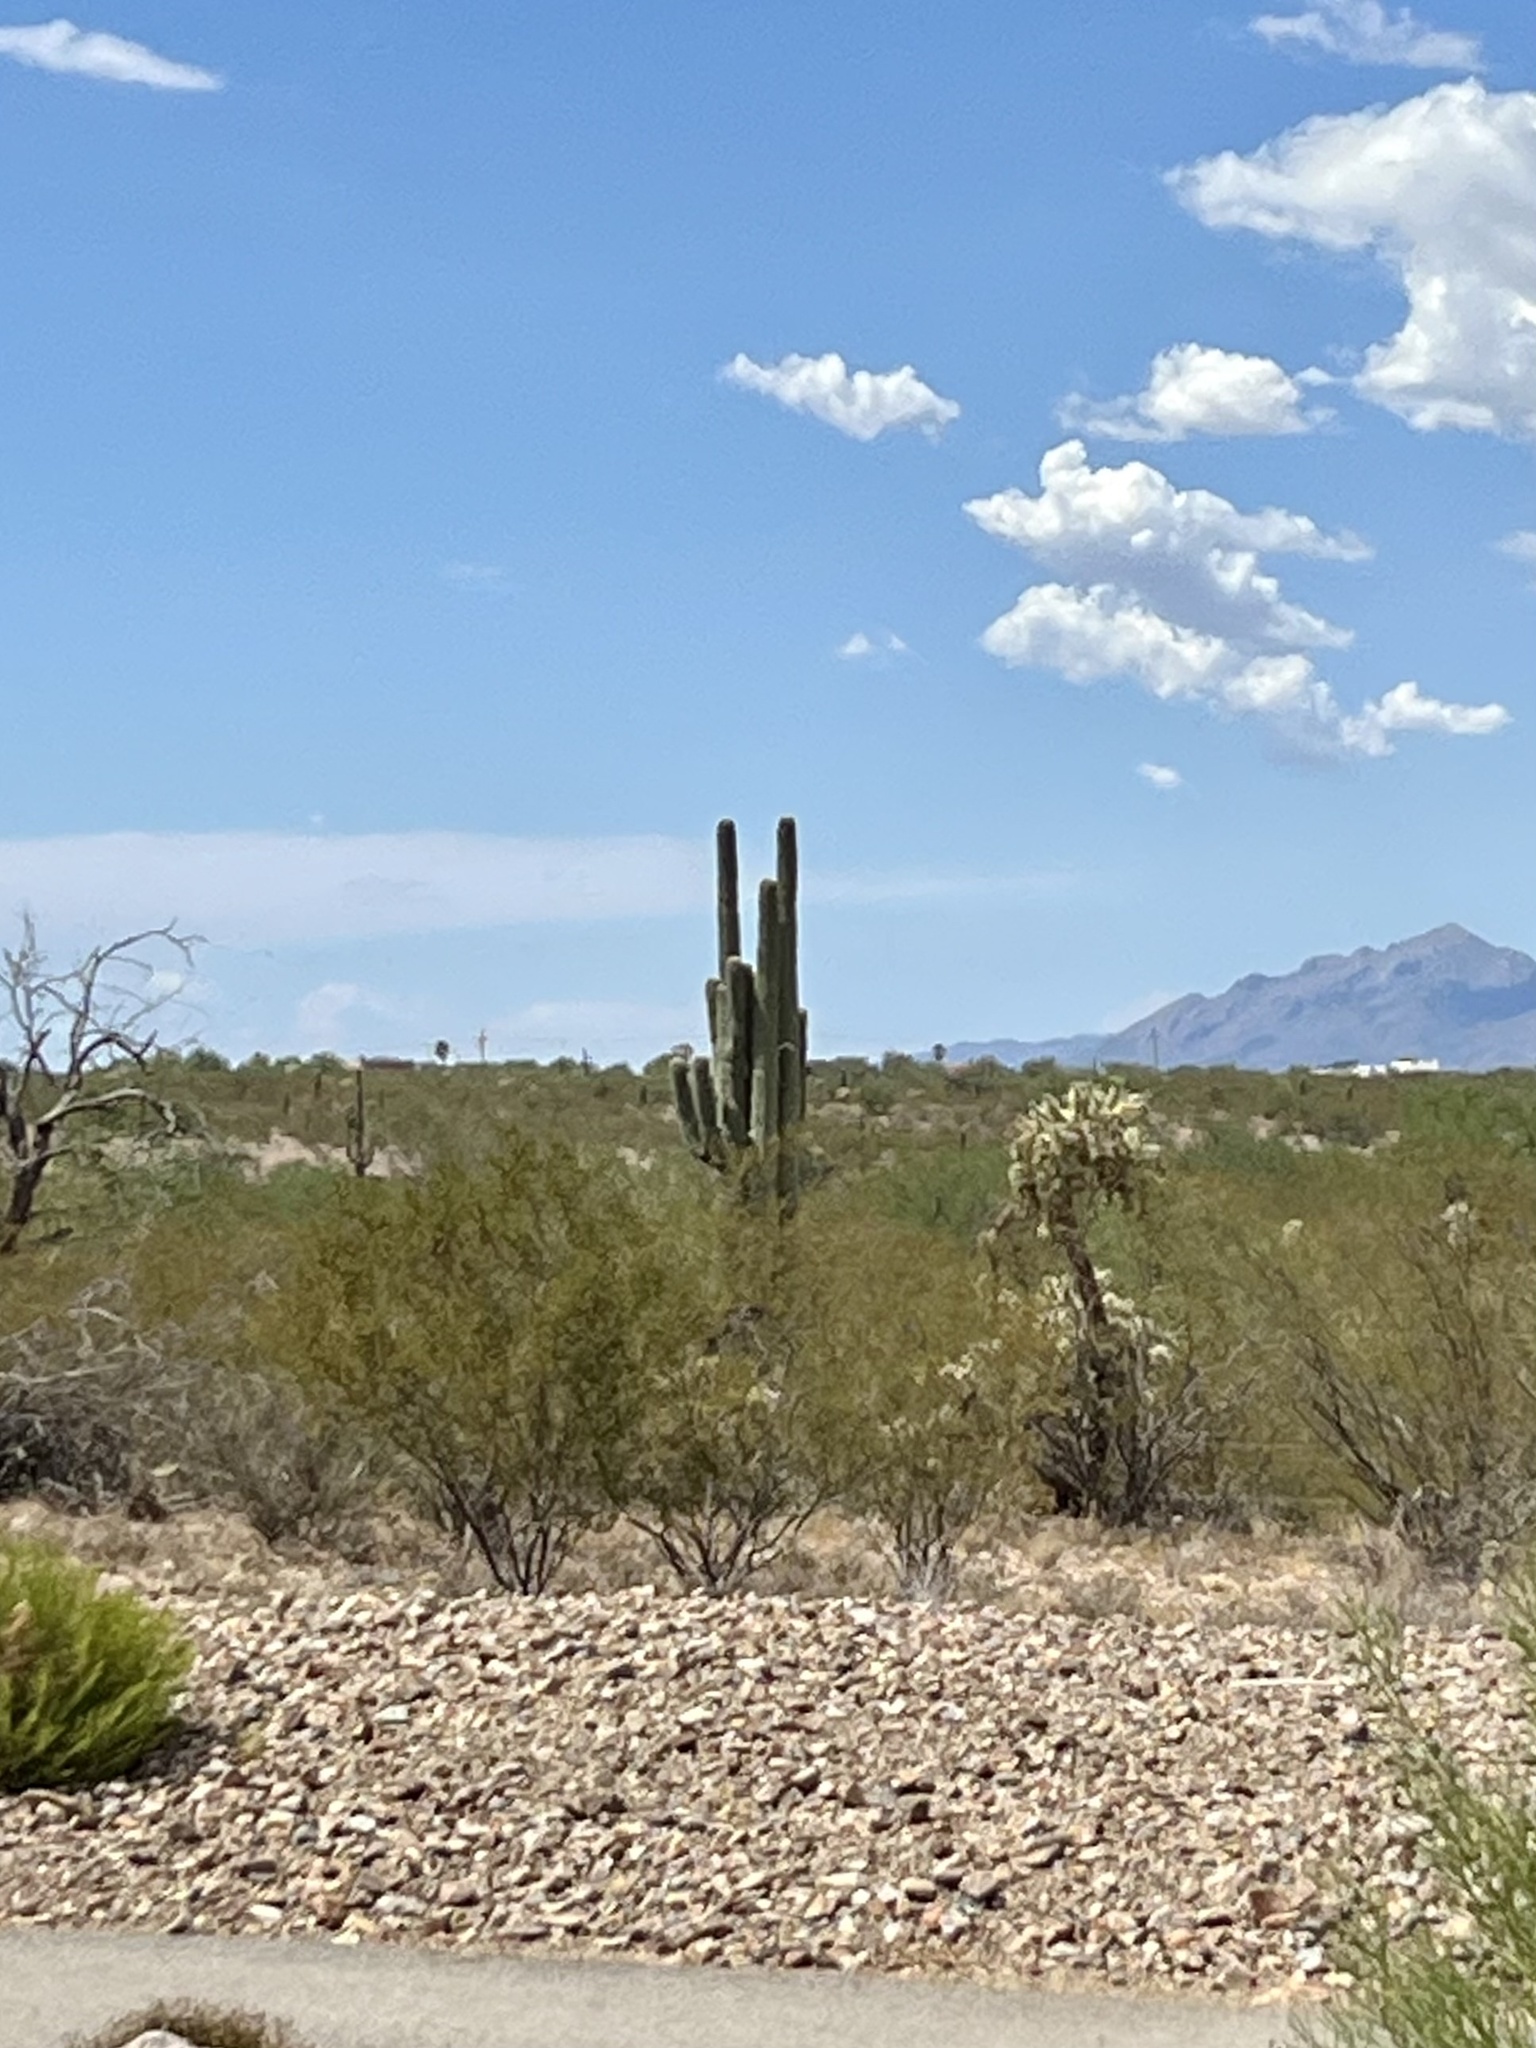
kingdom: Plantae
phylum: Tracheophyta
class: Magnoliopsida
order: Caryophyllales
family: Cactaceae
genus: Carnegiea
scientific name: Carnegiea gigantea
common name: Saguaro
